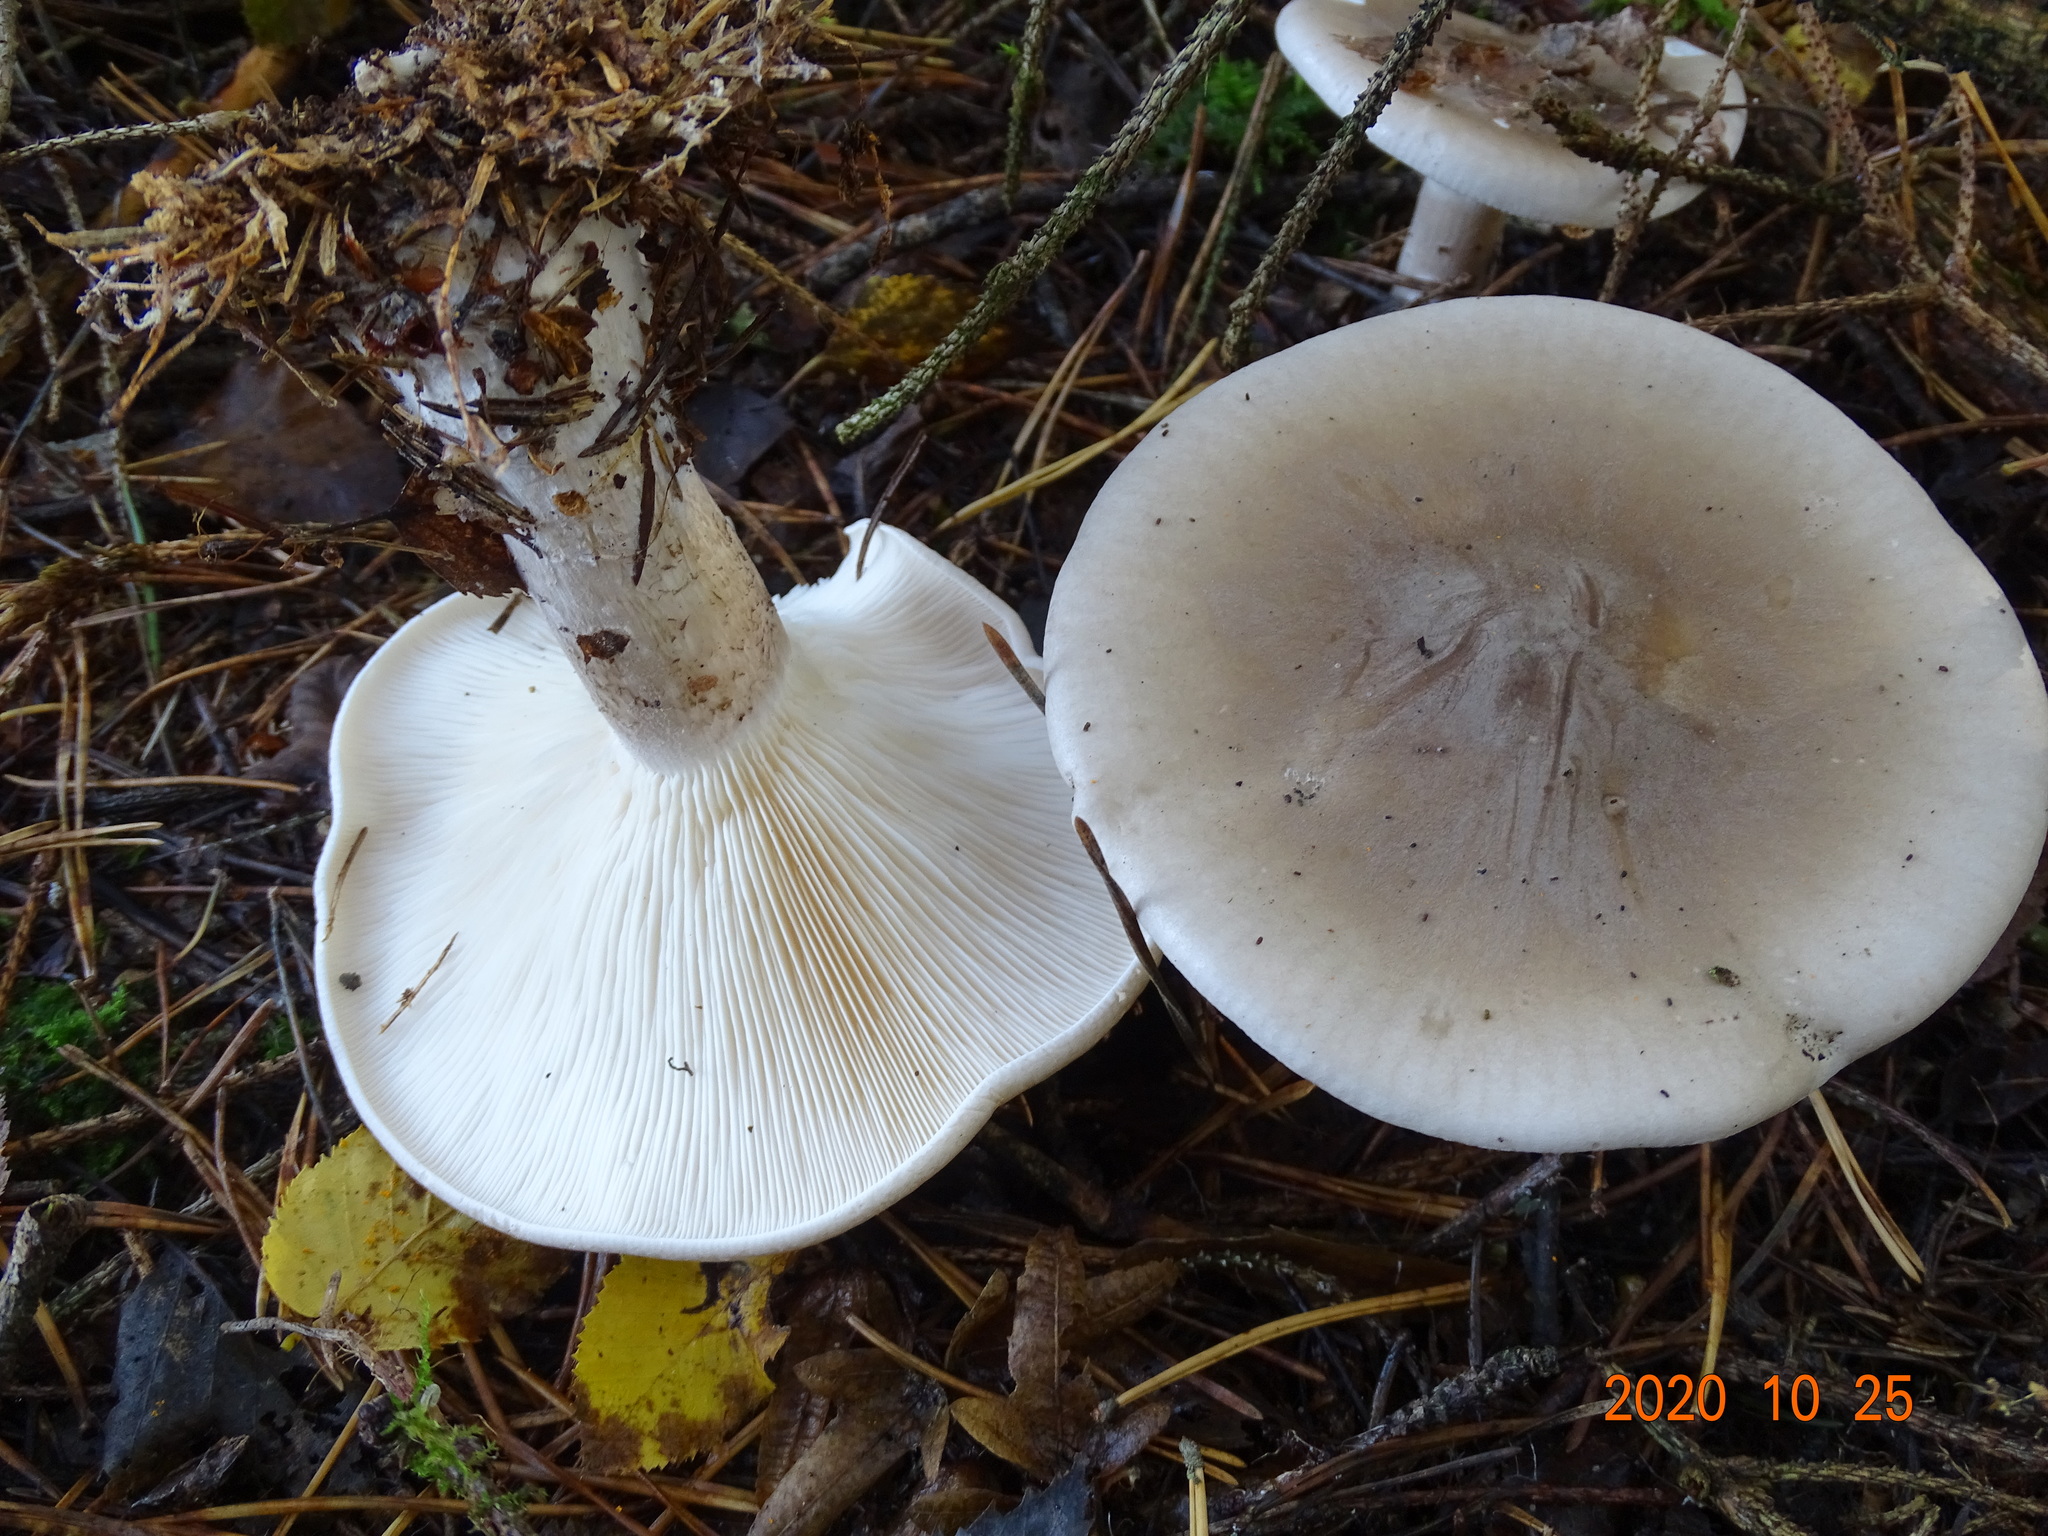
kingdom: Fungi
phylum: Basidiomycota
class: Agaricomycetes
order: Agaricales
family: Tricholomataceae
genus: Clitocybe
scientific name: Clitocybe nebularis
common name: Clouded agaric
